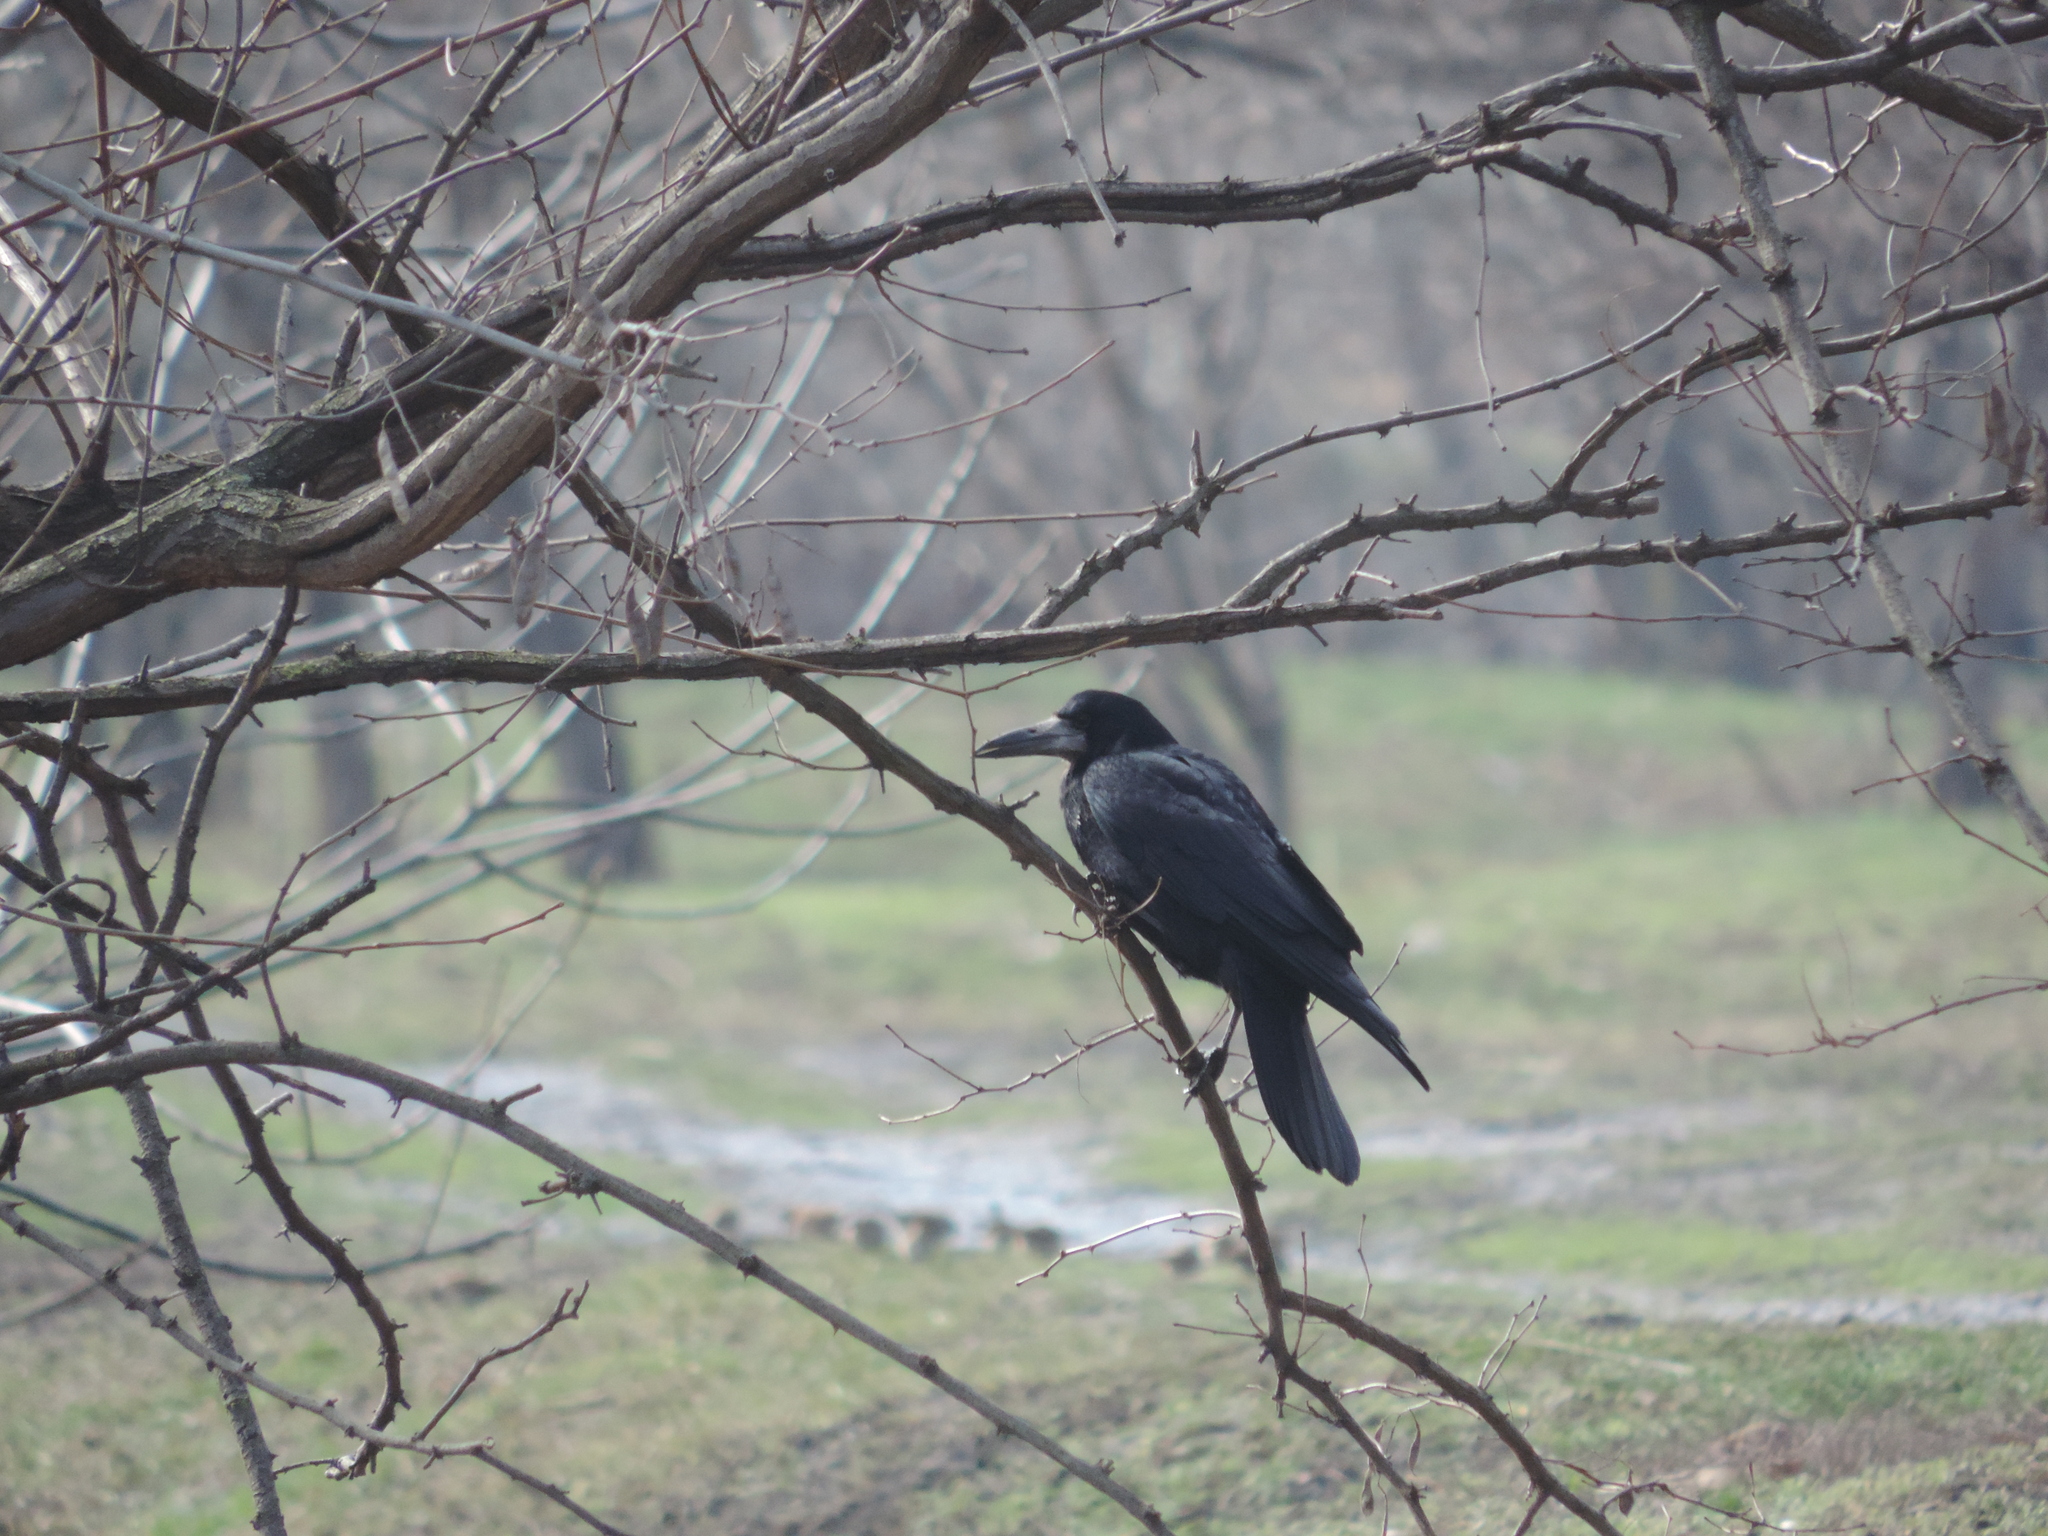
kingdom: Animalia
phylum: Chordata
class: Aves
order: Passeriformes
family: Corvidae
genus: Corvus
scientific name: Corvus frugilegus
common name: Rook
